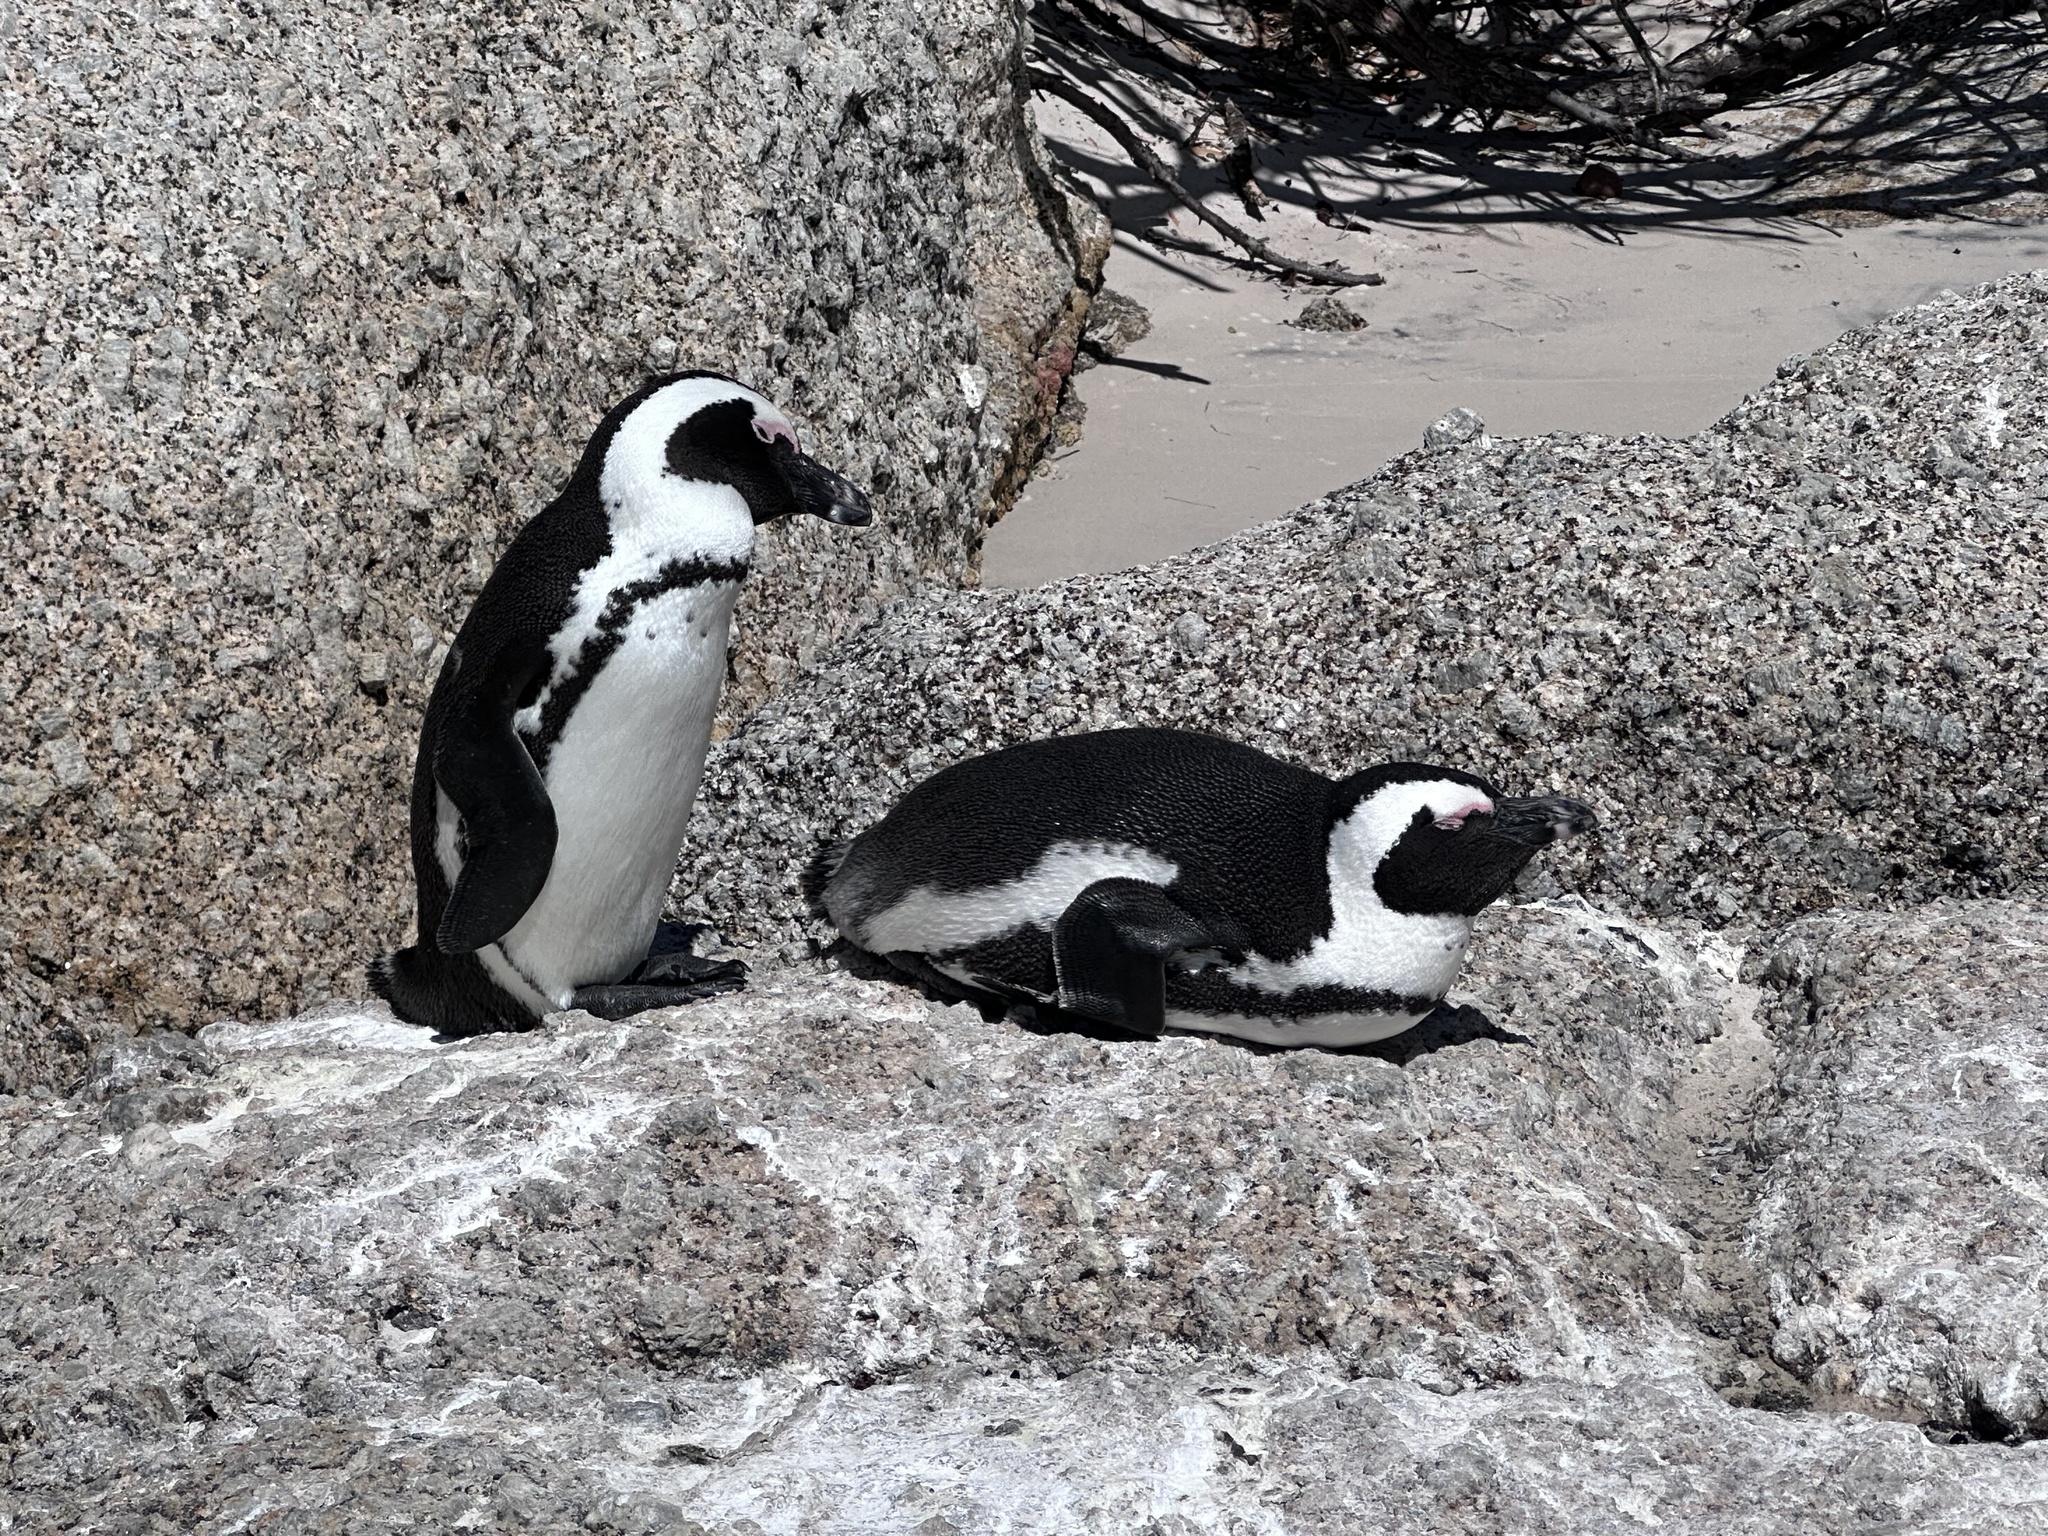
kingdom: Animalia
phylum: Chordata
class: Aves
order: Sphenisciformes
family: Spheniscidae
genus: Spheniscus
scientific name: Spheniscus demersus
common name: African penguin
